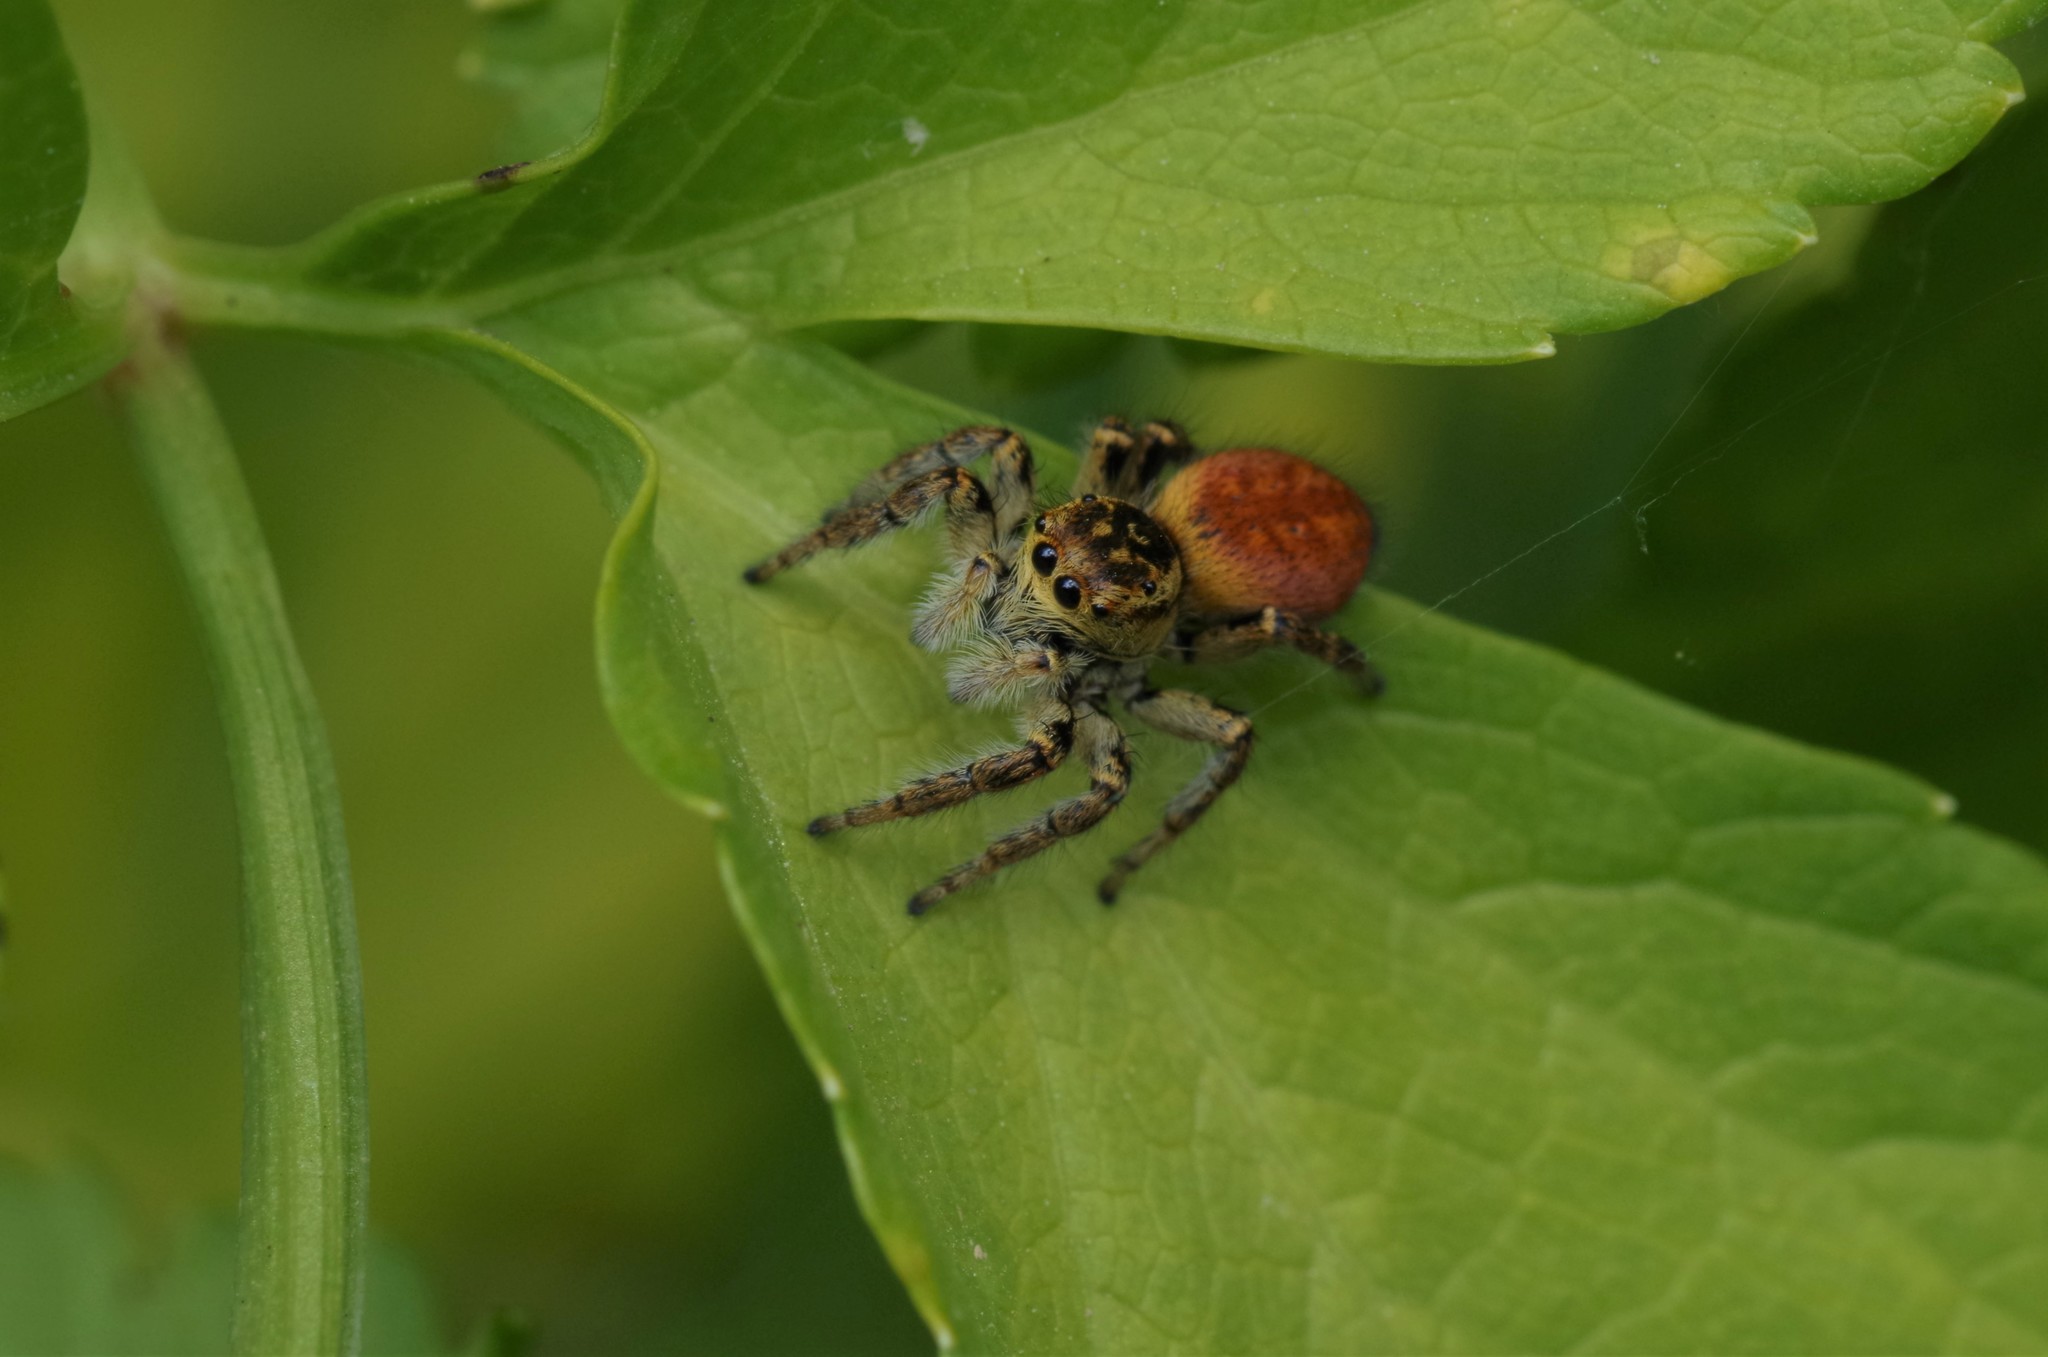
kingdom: Animalia
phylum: Arthropoda
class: Arachnida
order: Araneae
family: Salticidae
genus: Carrhotus
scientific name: Carrhotus xanthogramma
